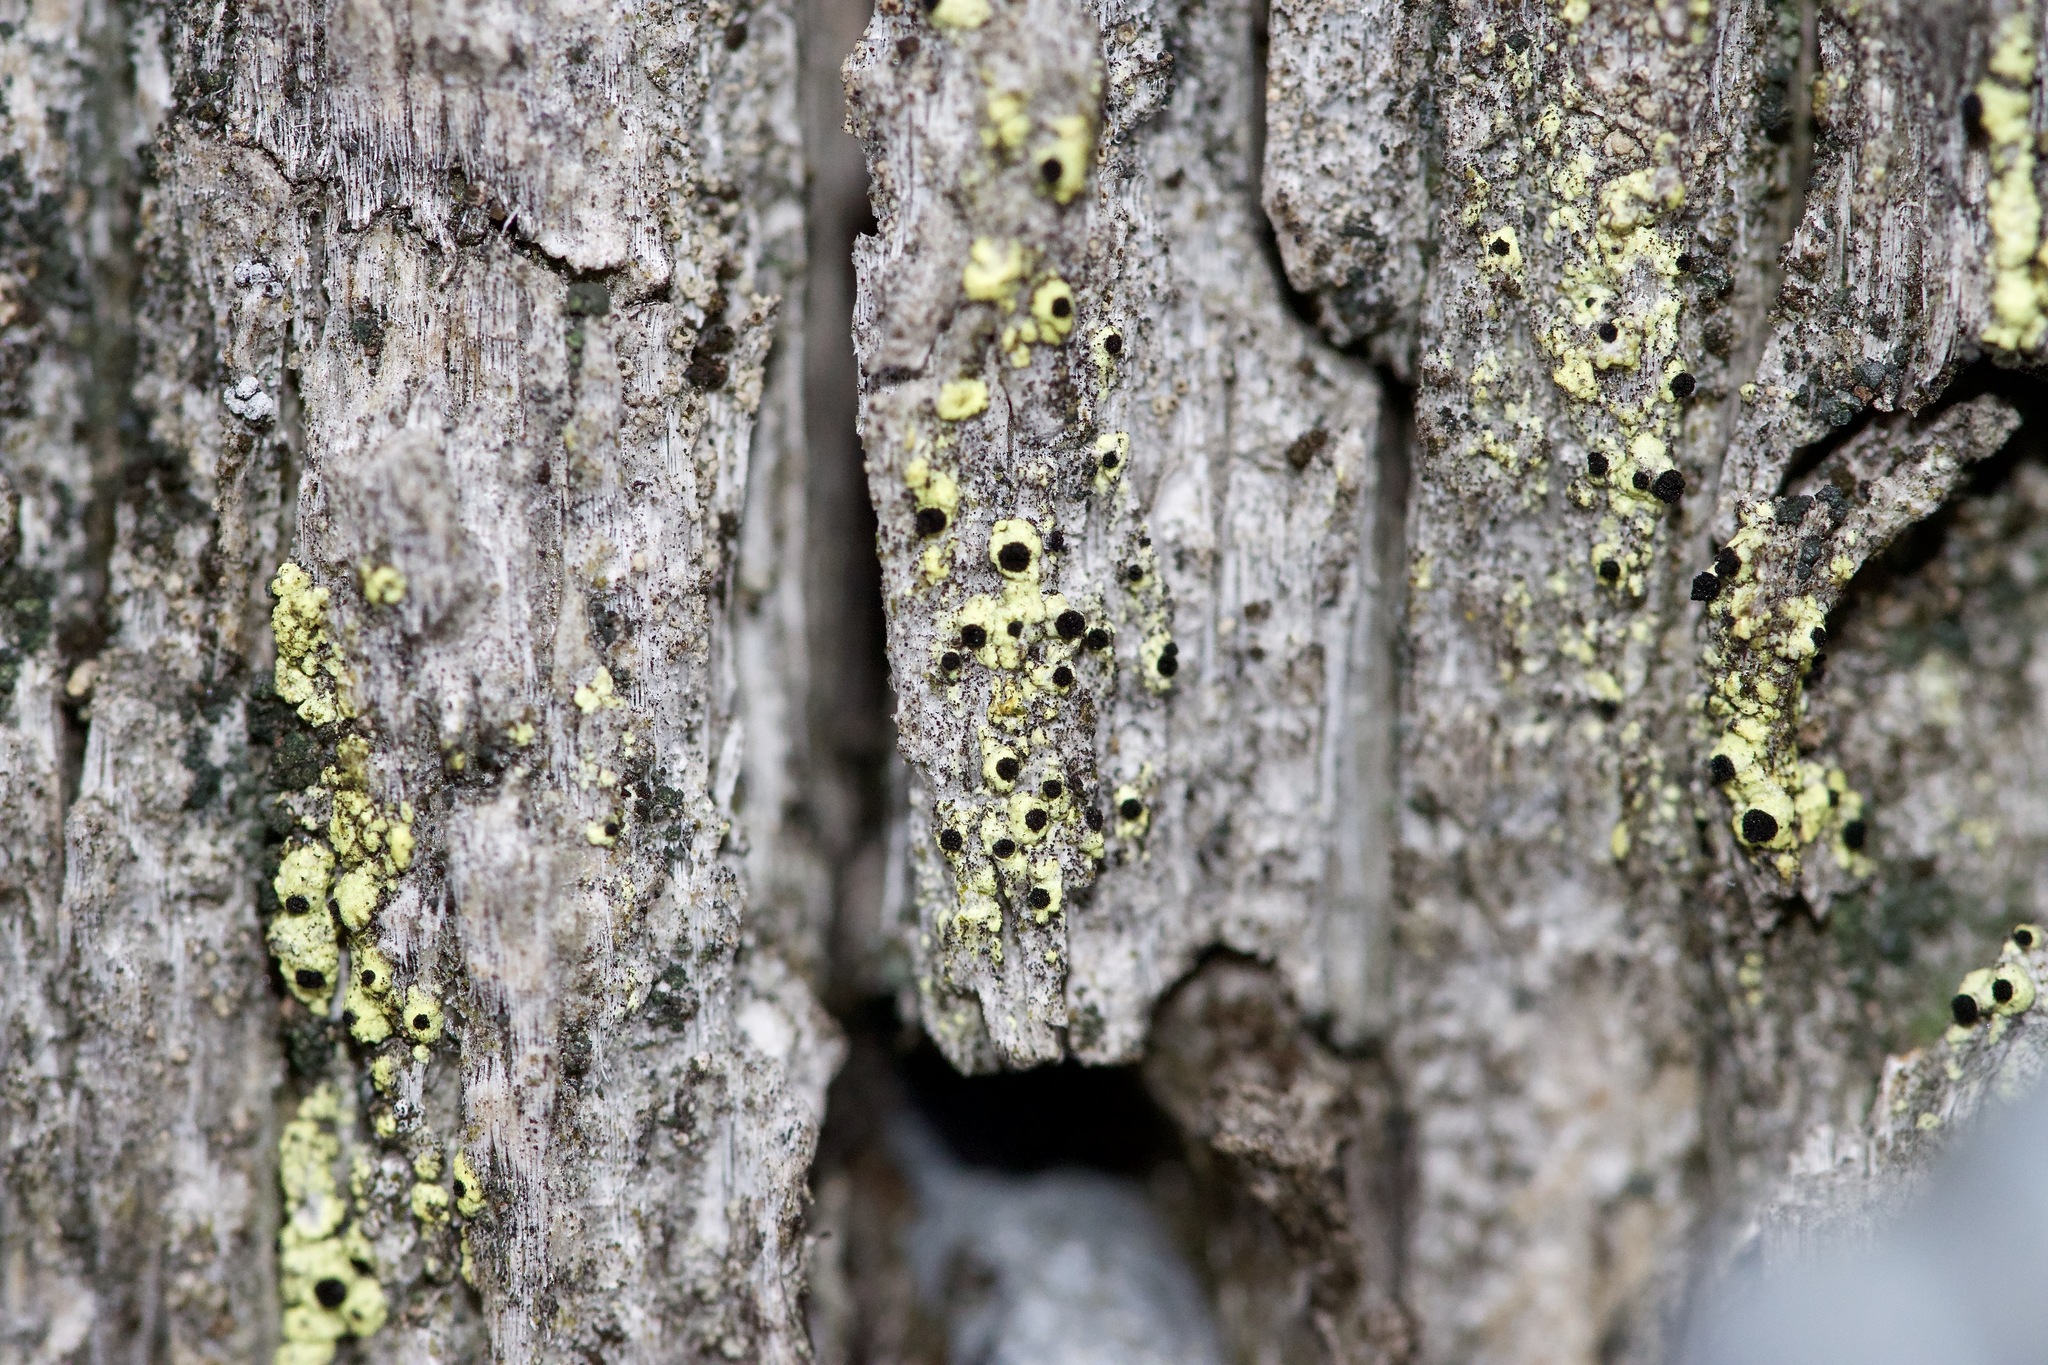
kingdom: Fungi
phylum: Ascomycota
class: Lecanoromycetes
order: Caliciales
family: Caliciaceae
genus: Calicium
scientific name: Calicium tigillare
